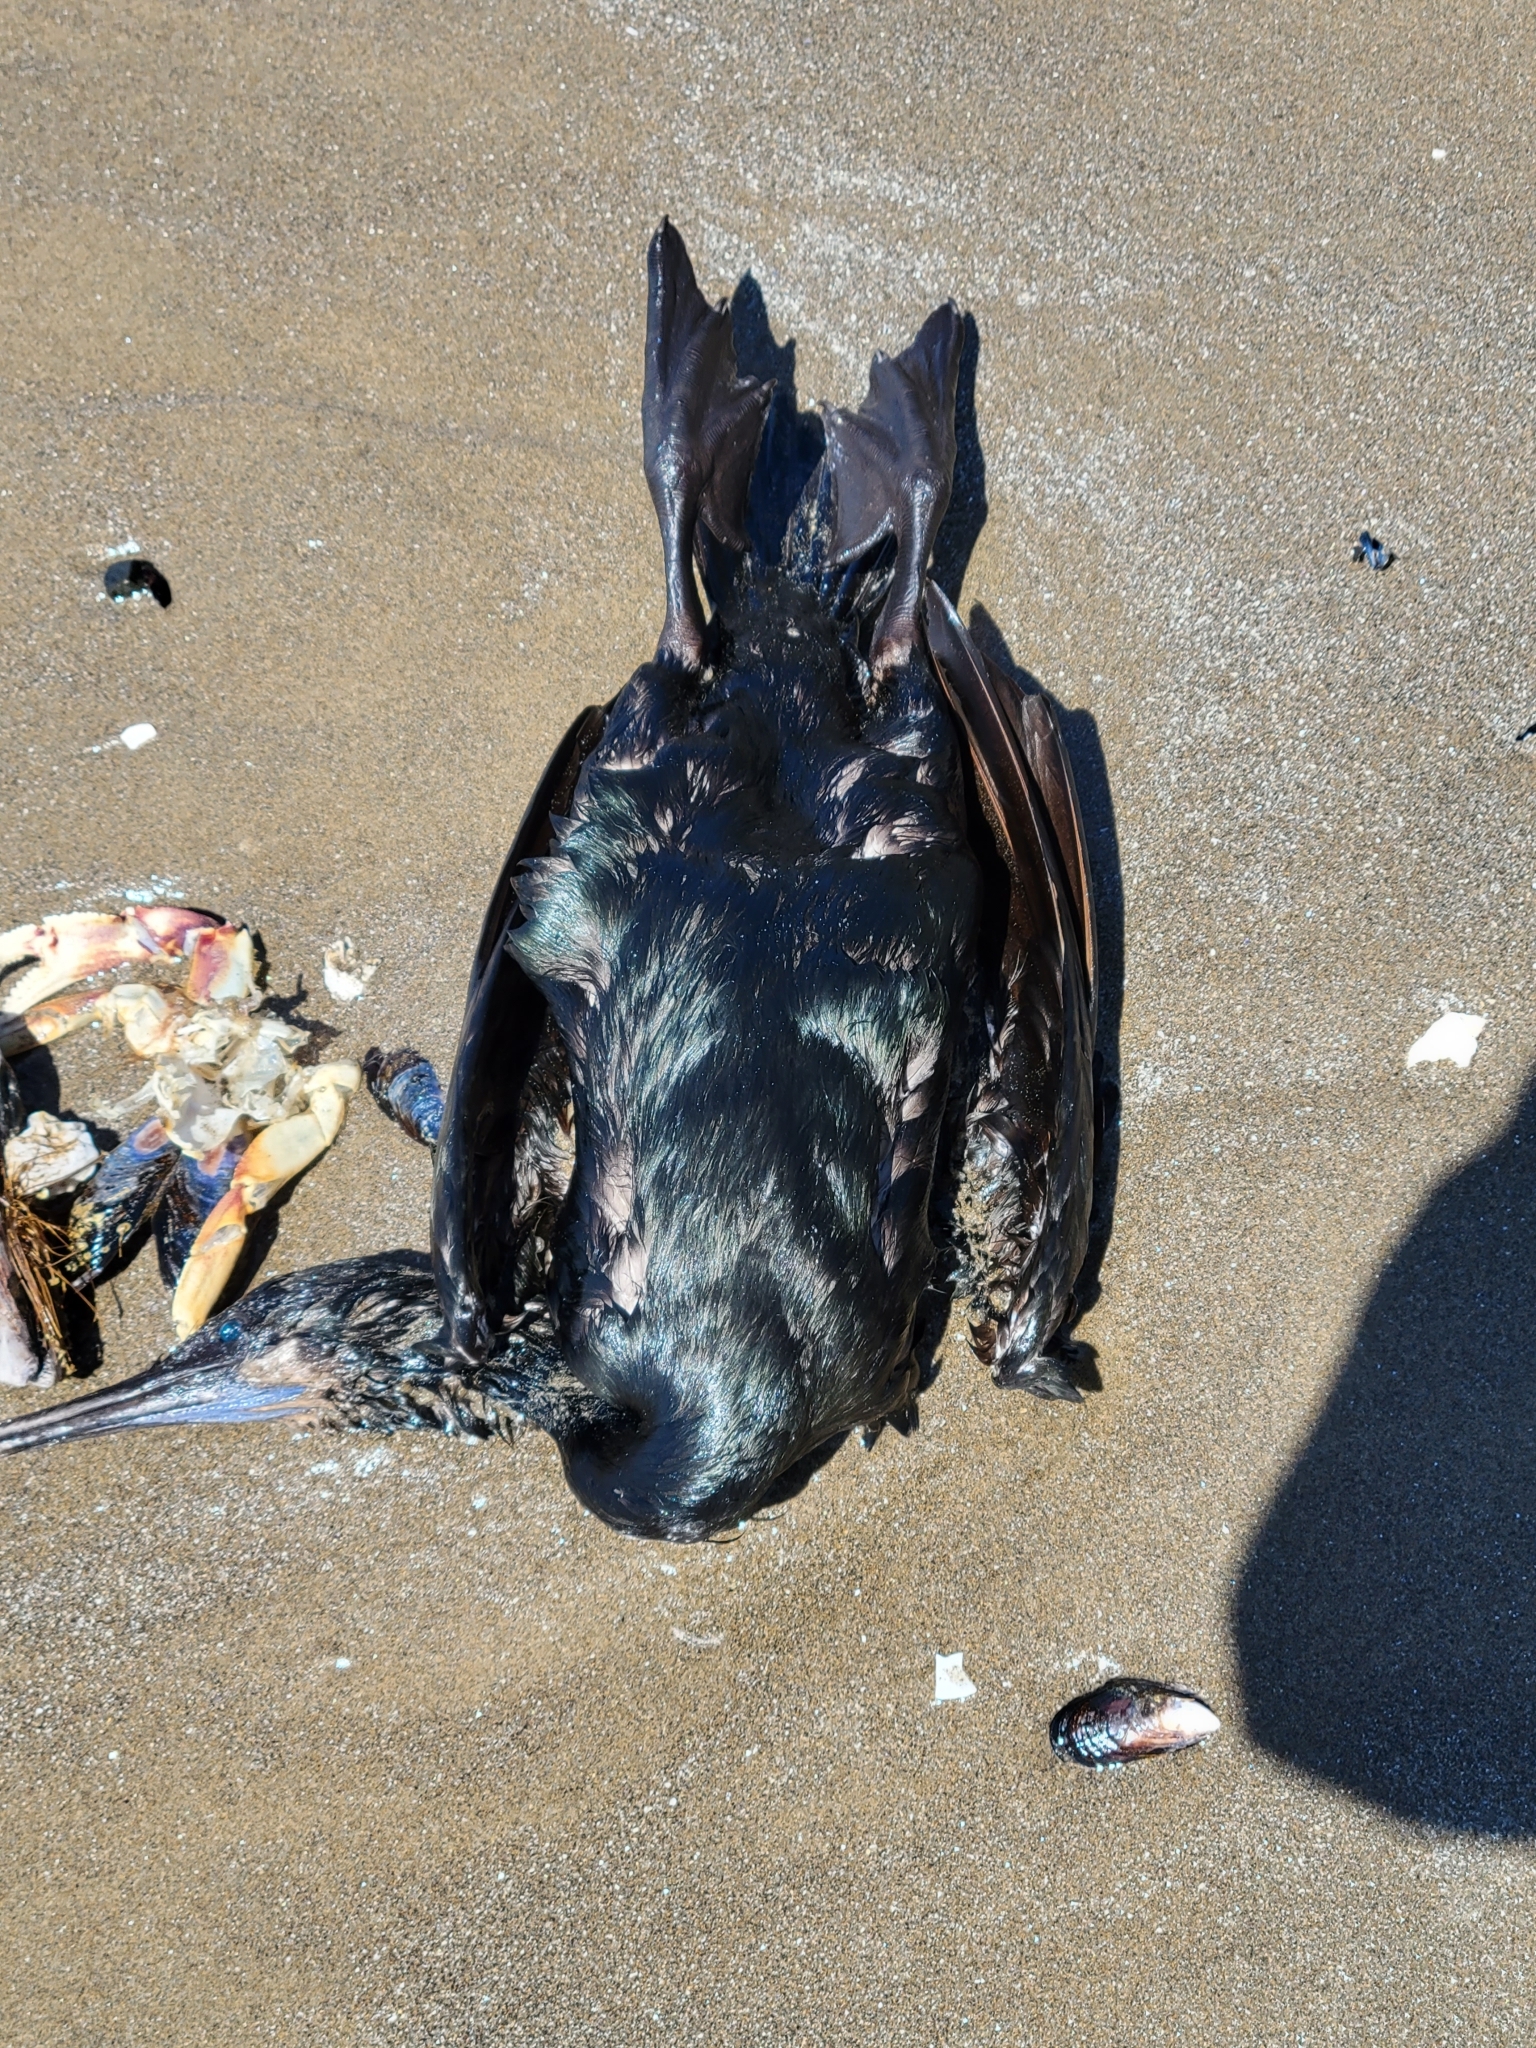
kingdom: Animalia
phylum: Chordata
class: Aves
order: Suliformes
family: Phalacrocoracidae
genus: Urile
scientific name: Urile penicillatus
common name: Brandt's cormorant
